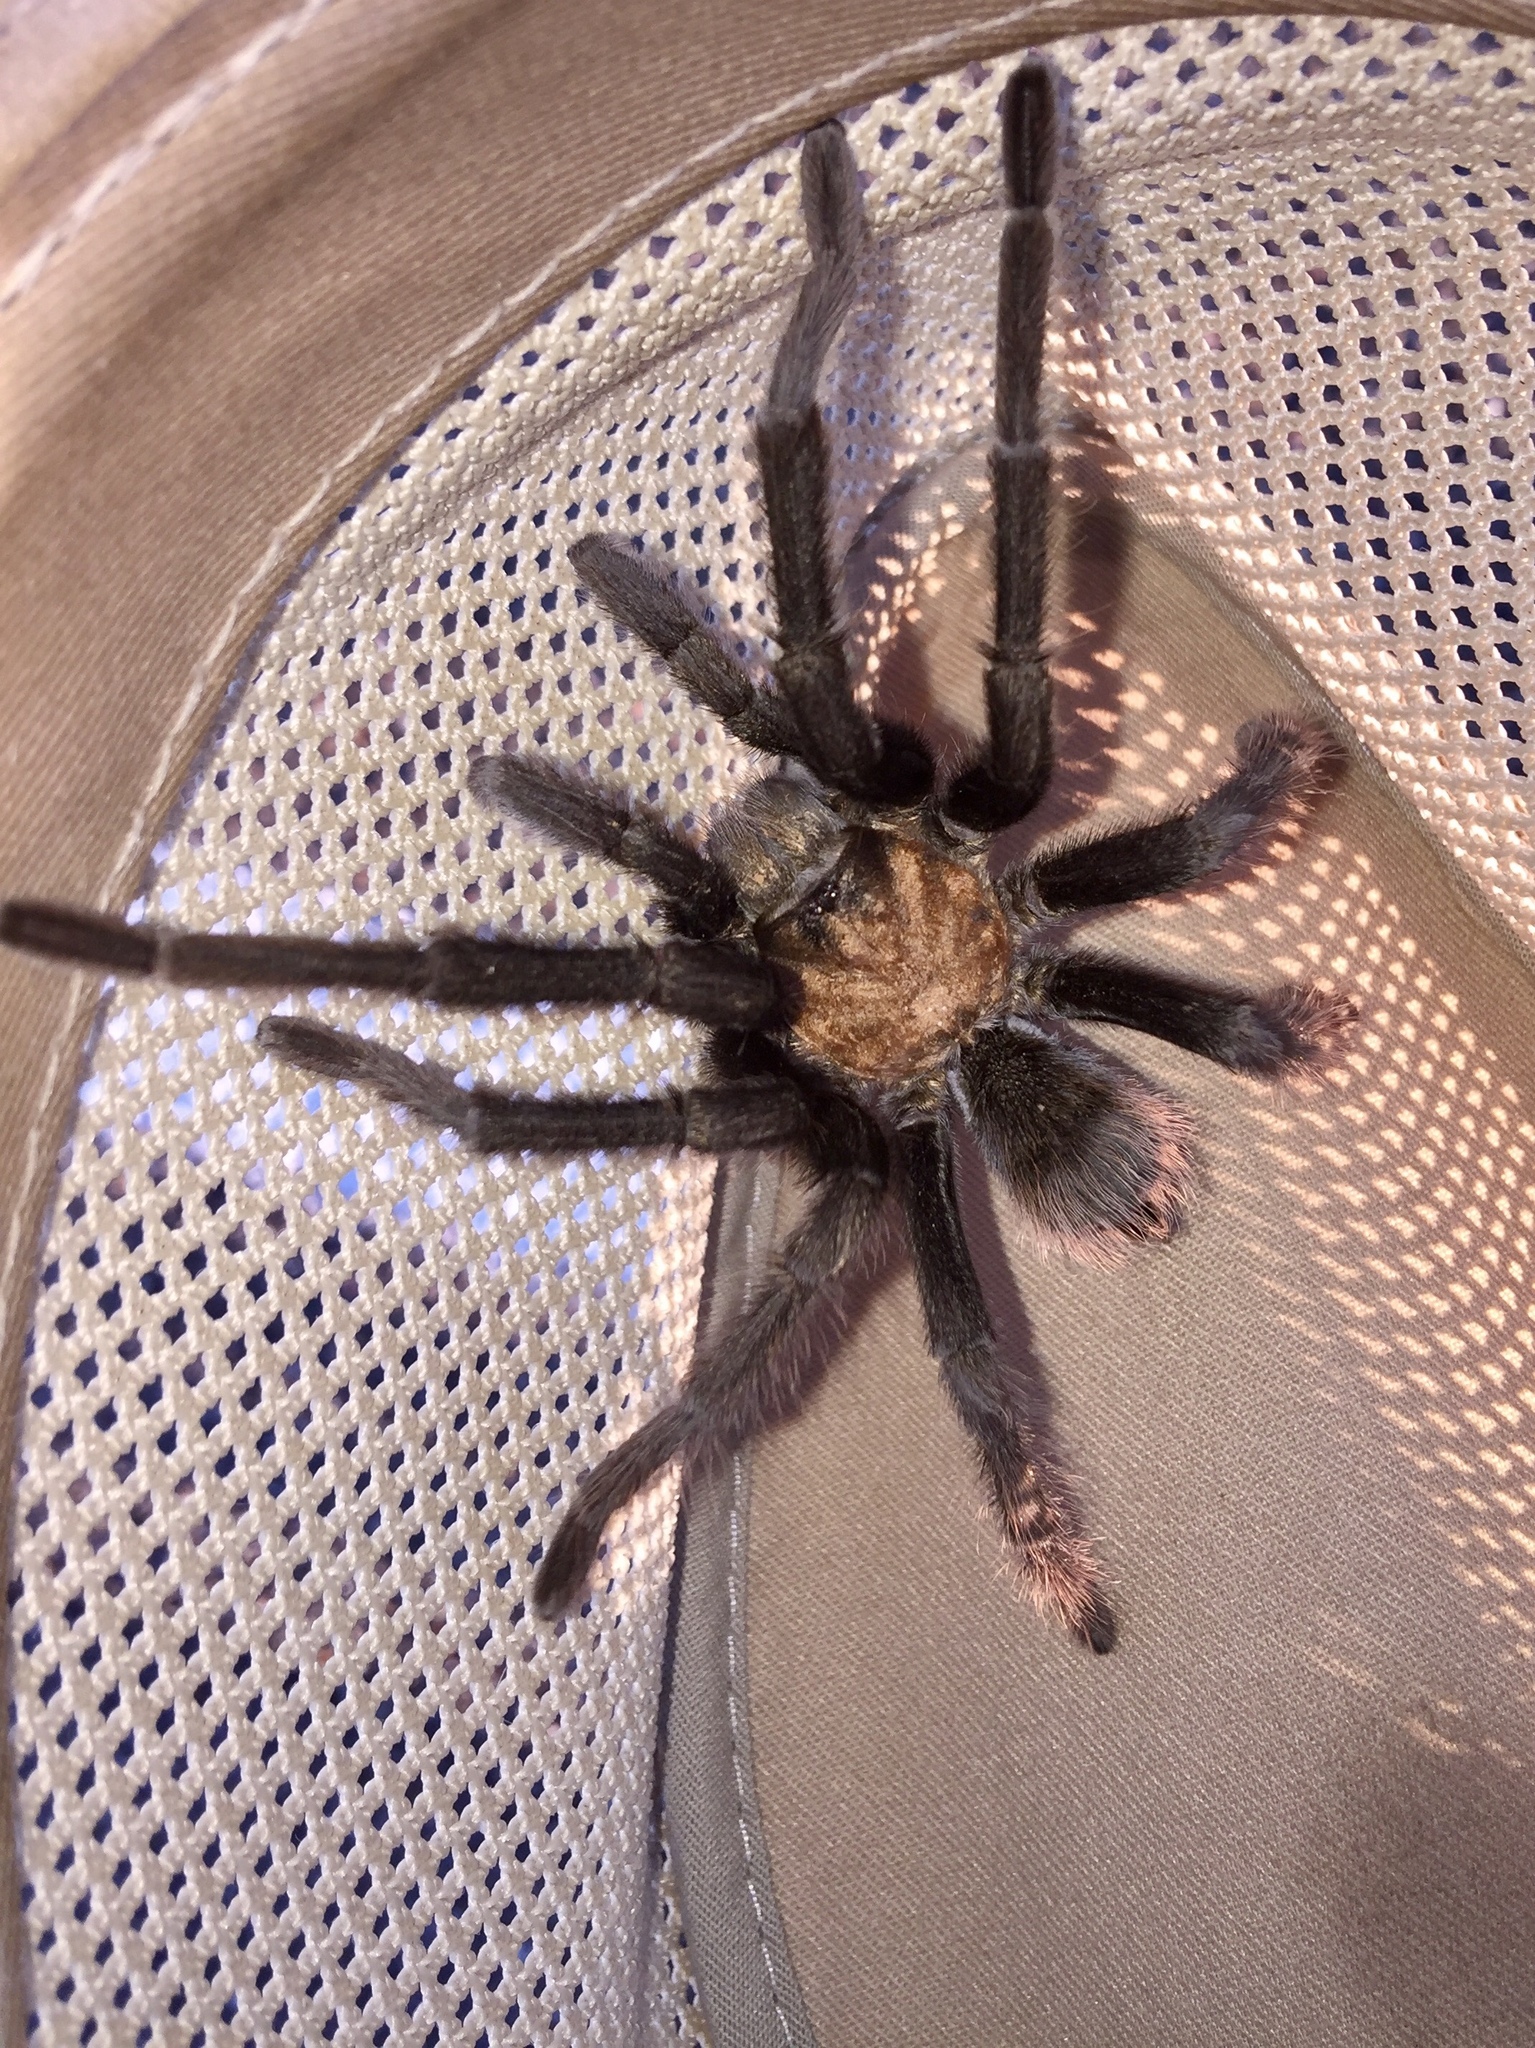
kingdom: Animalia
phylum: Arthropoda
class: Arachnida
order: Araneae
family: Theraphosidae
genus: Aphonopelma
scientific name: Aphonopelma iodius
